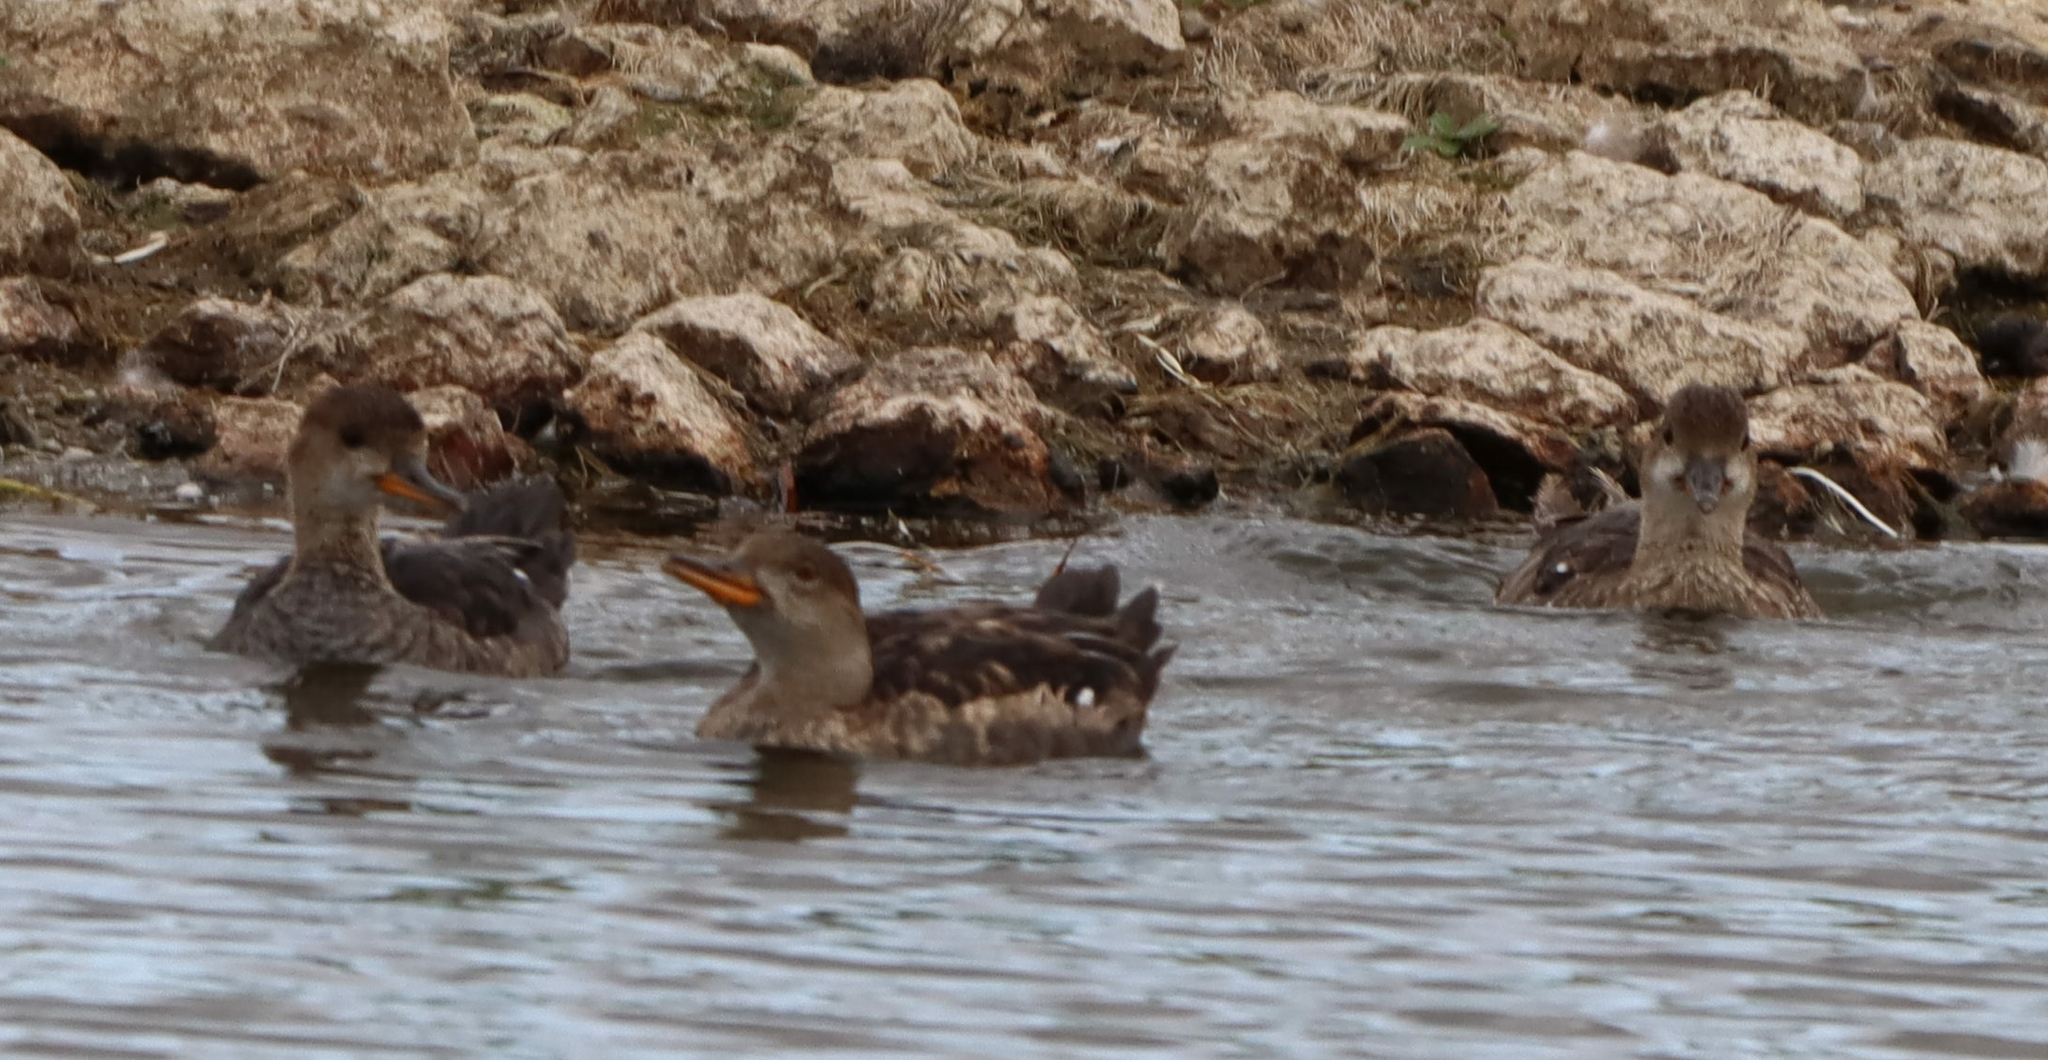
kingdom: Animalia
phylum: Chordata
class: Aves
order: Anseriformes
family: Anatidae
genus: Lophodytes
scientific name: Lophodytes cucullatus
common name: Hooded merganser
